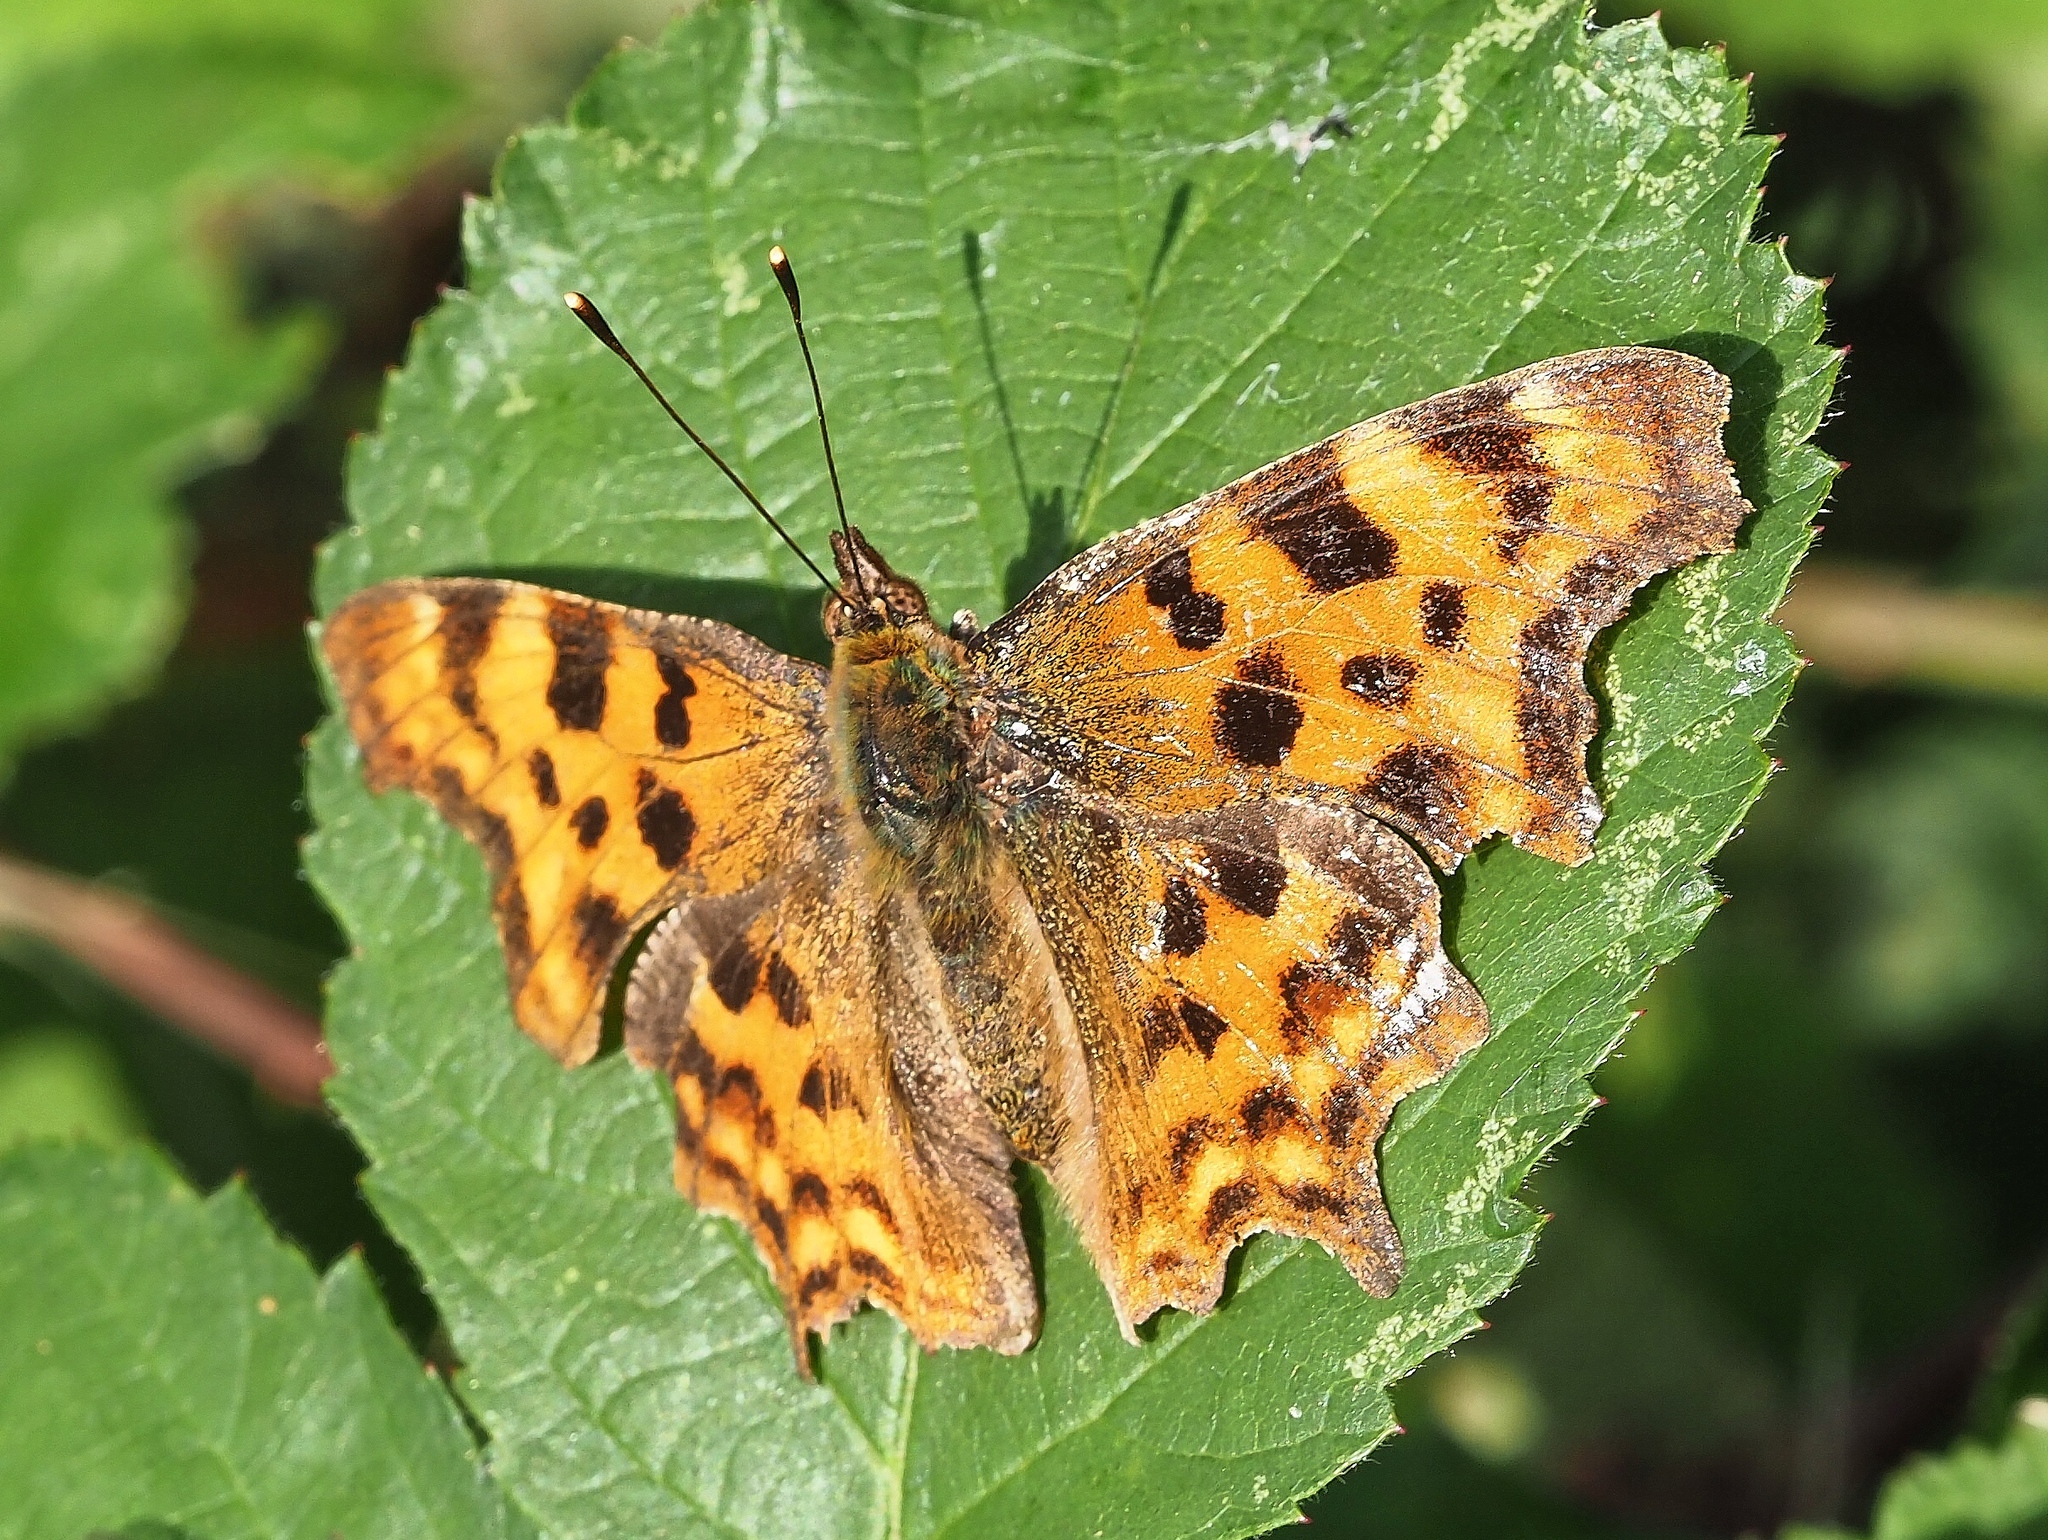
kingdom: Animalia
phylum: Arthropoda
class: Insecta
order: Lepidoptera
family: Nymphalidae
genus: Polygonia
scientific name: Polygonia c-album
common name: Comma
